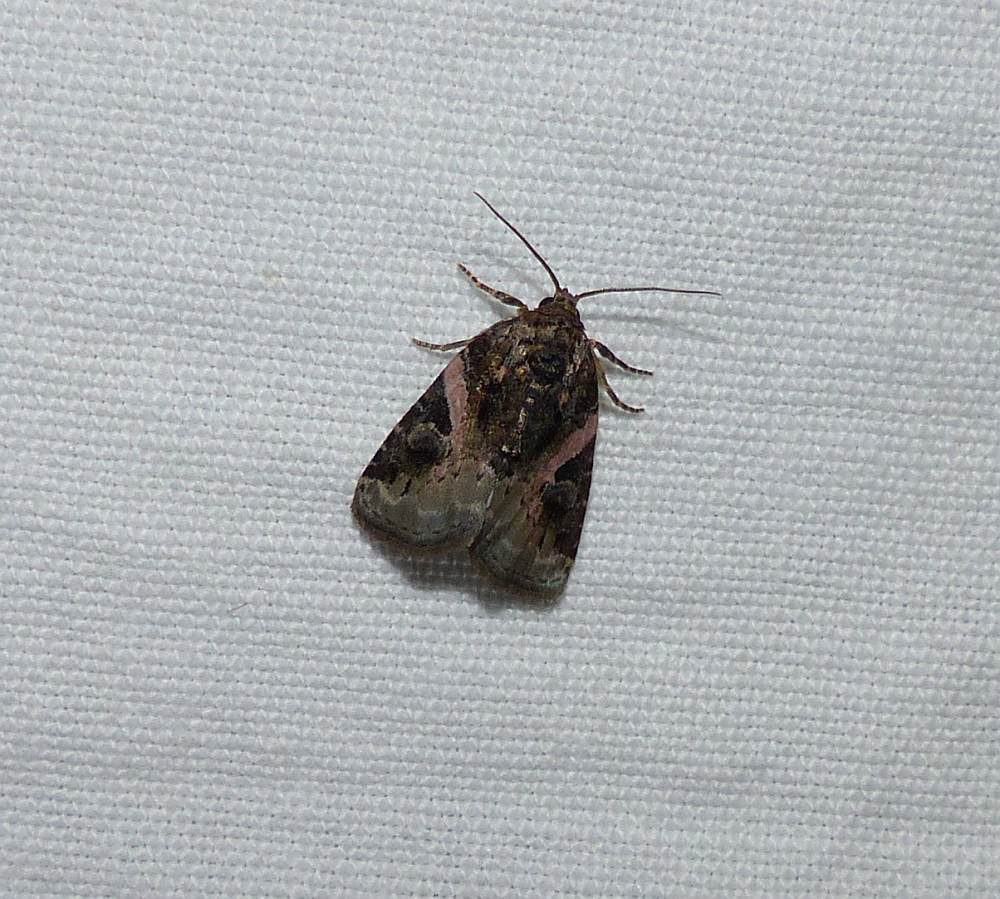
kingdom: Animalia
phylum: Arthropoda
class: Insecta
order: Lepidoptera
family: Noctuidae
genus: Pseudeustrotia
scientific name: Pseudeustrotia carneola
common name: Pink-barred lithacodia moth
